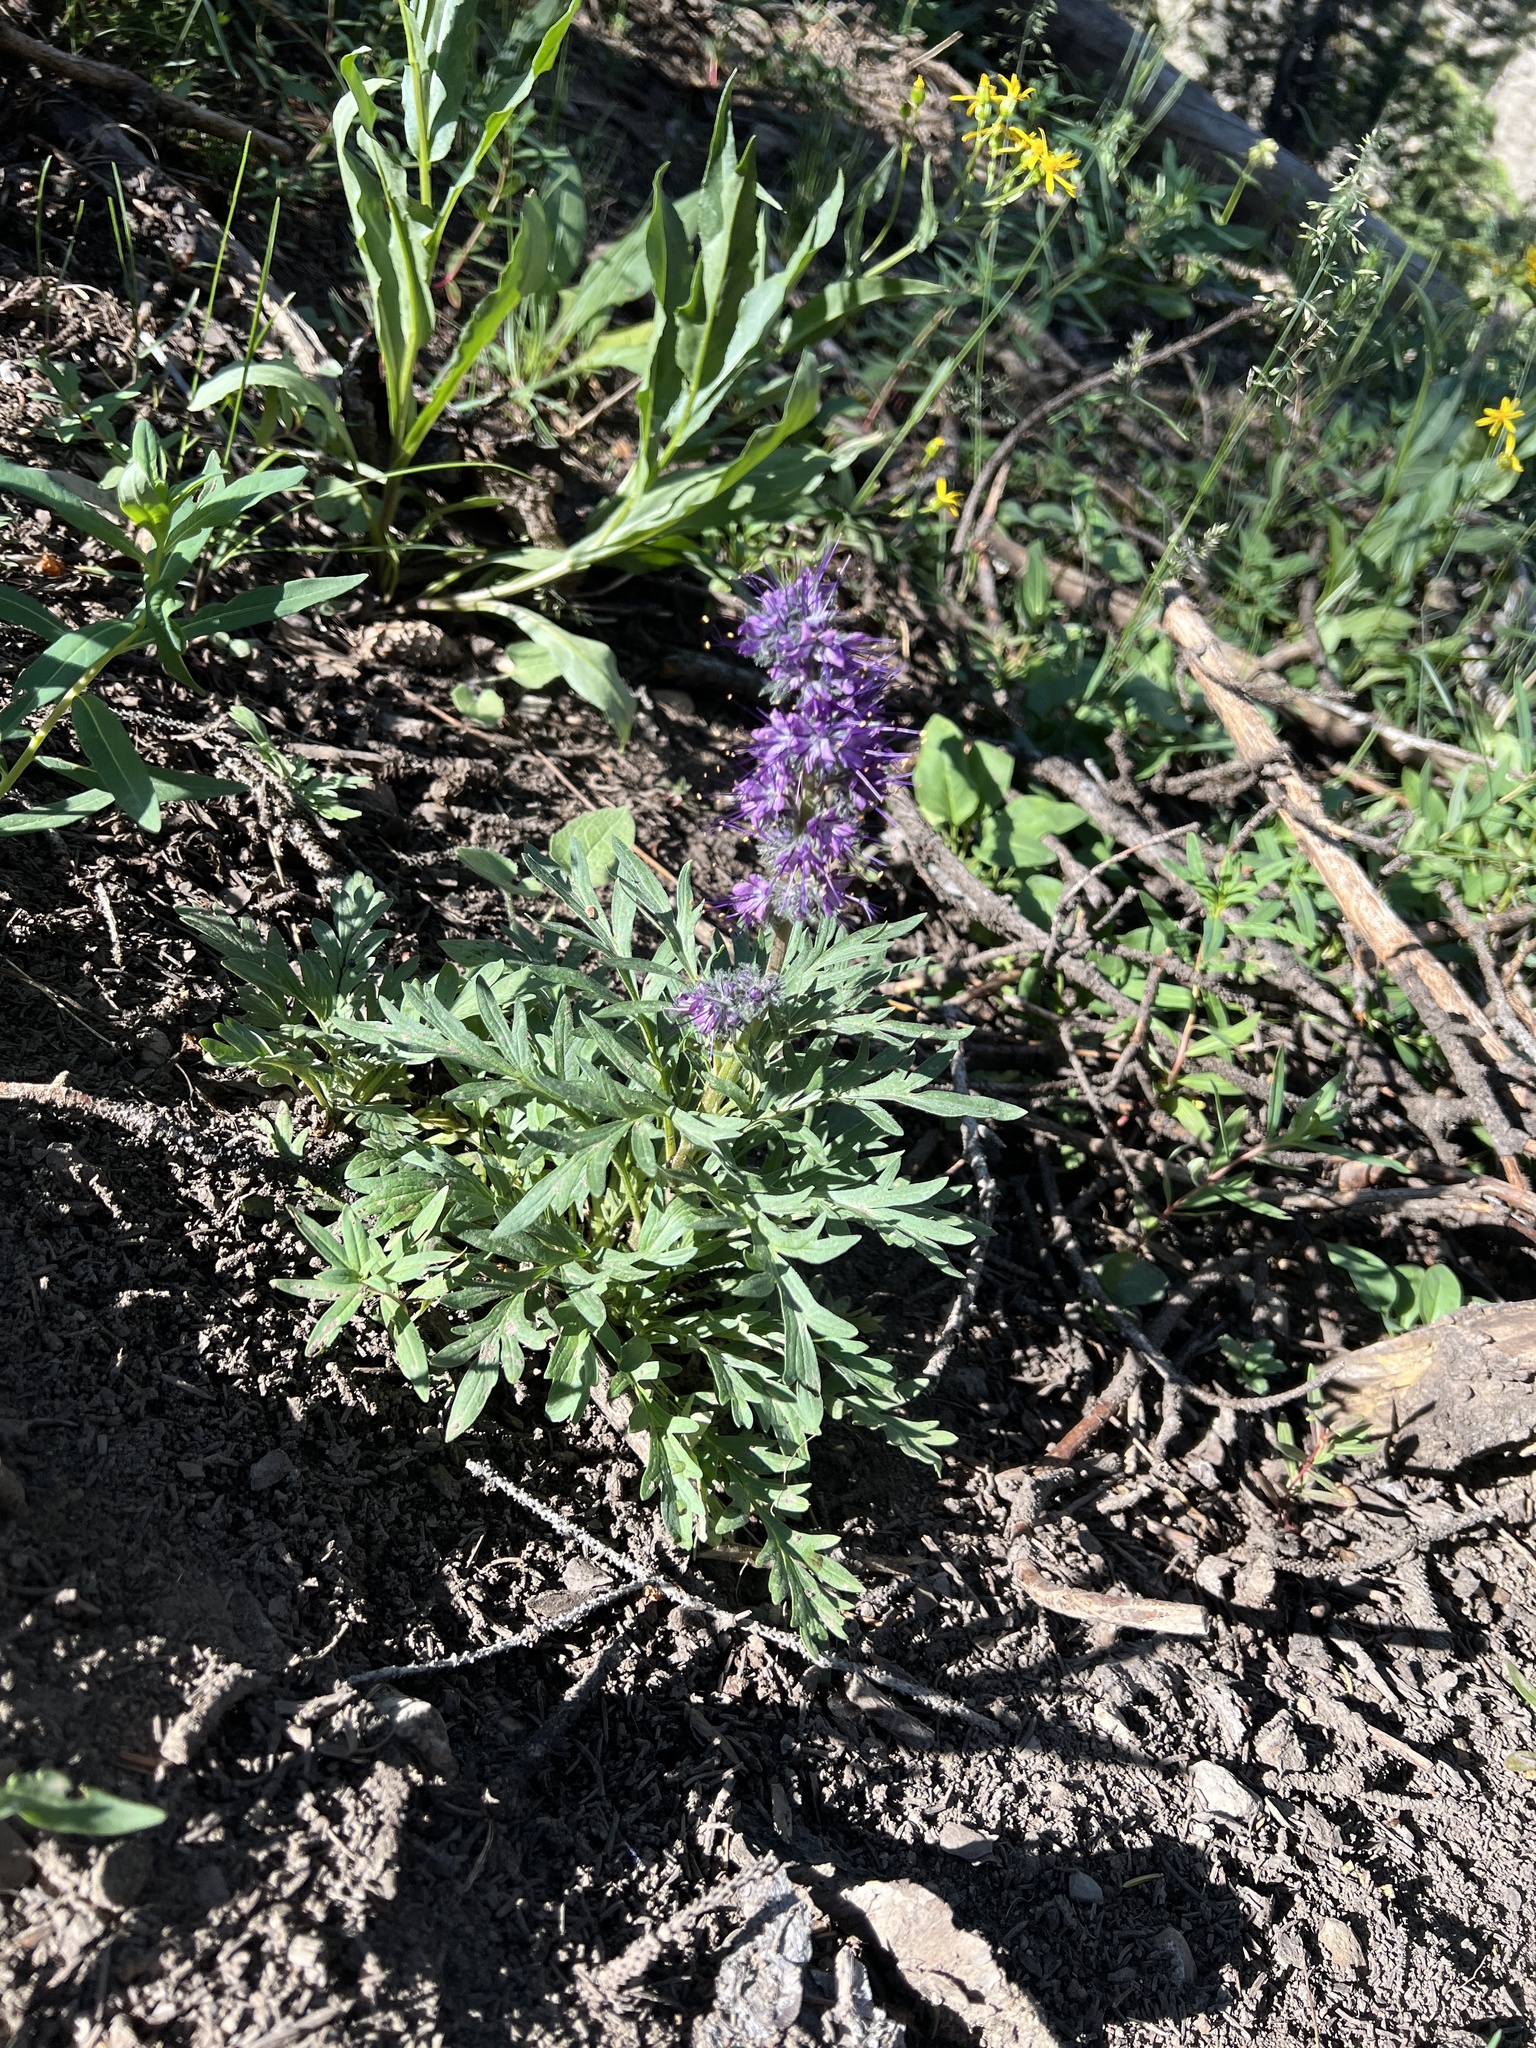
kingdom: Plantae
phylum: Tracheophyta
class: Magnoliopsida
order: Boraginales
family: Hydrophyllaceae
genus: Phacelia
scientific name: Phacelia sericea
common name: Silky phacelia
